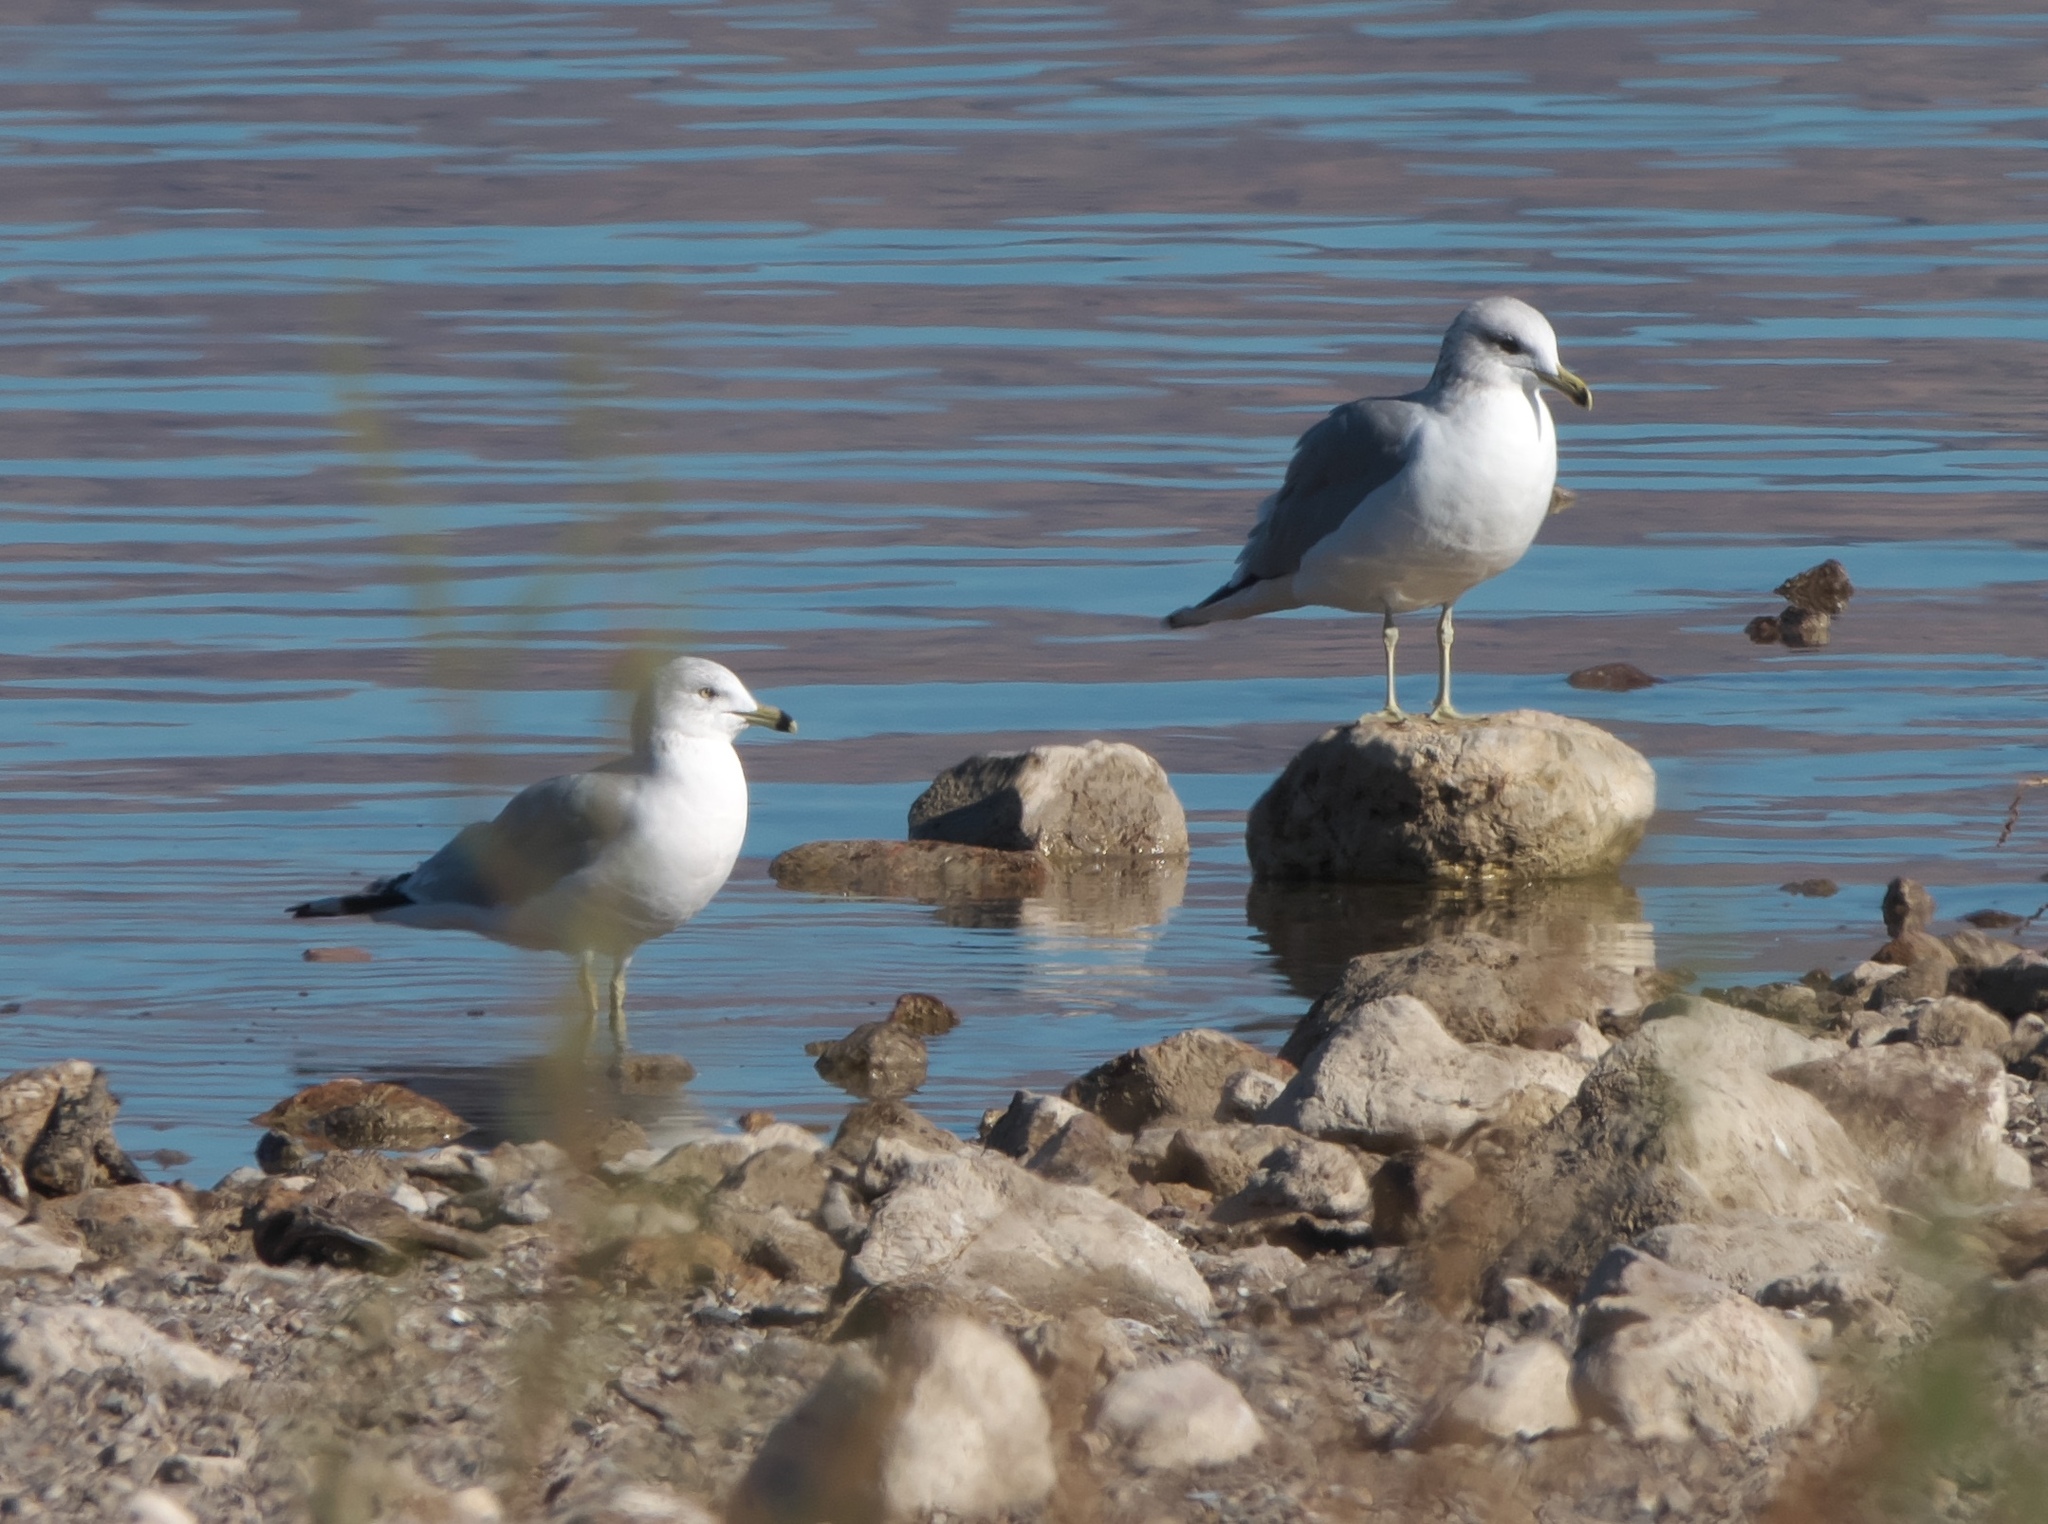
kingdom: Animalia
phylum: Chordata
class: Aves
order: Charadriiformes
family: Laridae
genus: Larus
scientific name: Larus delawarensis
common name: Ring-billed gull
